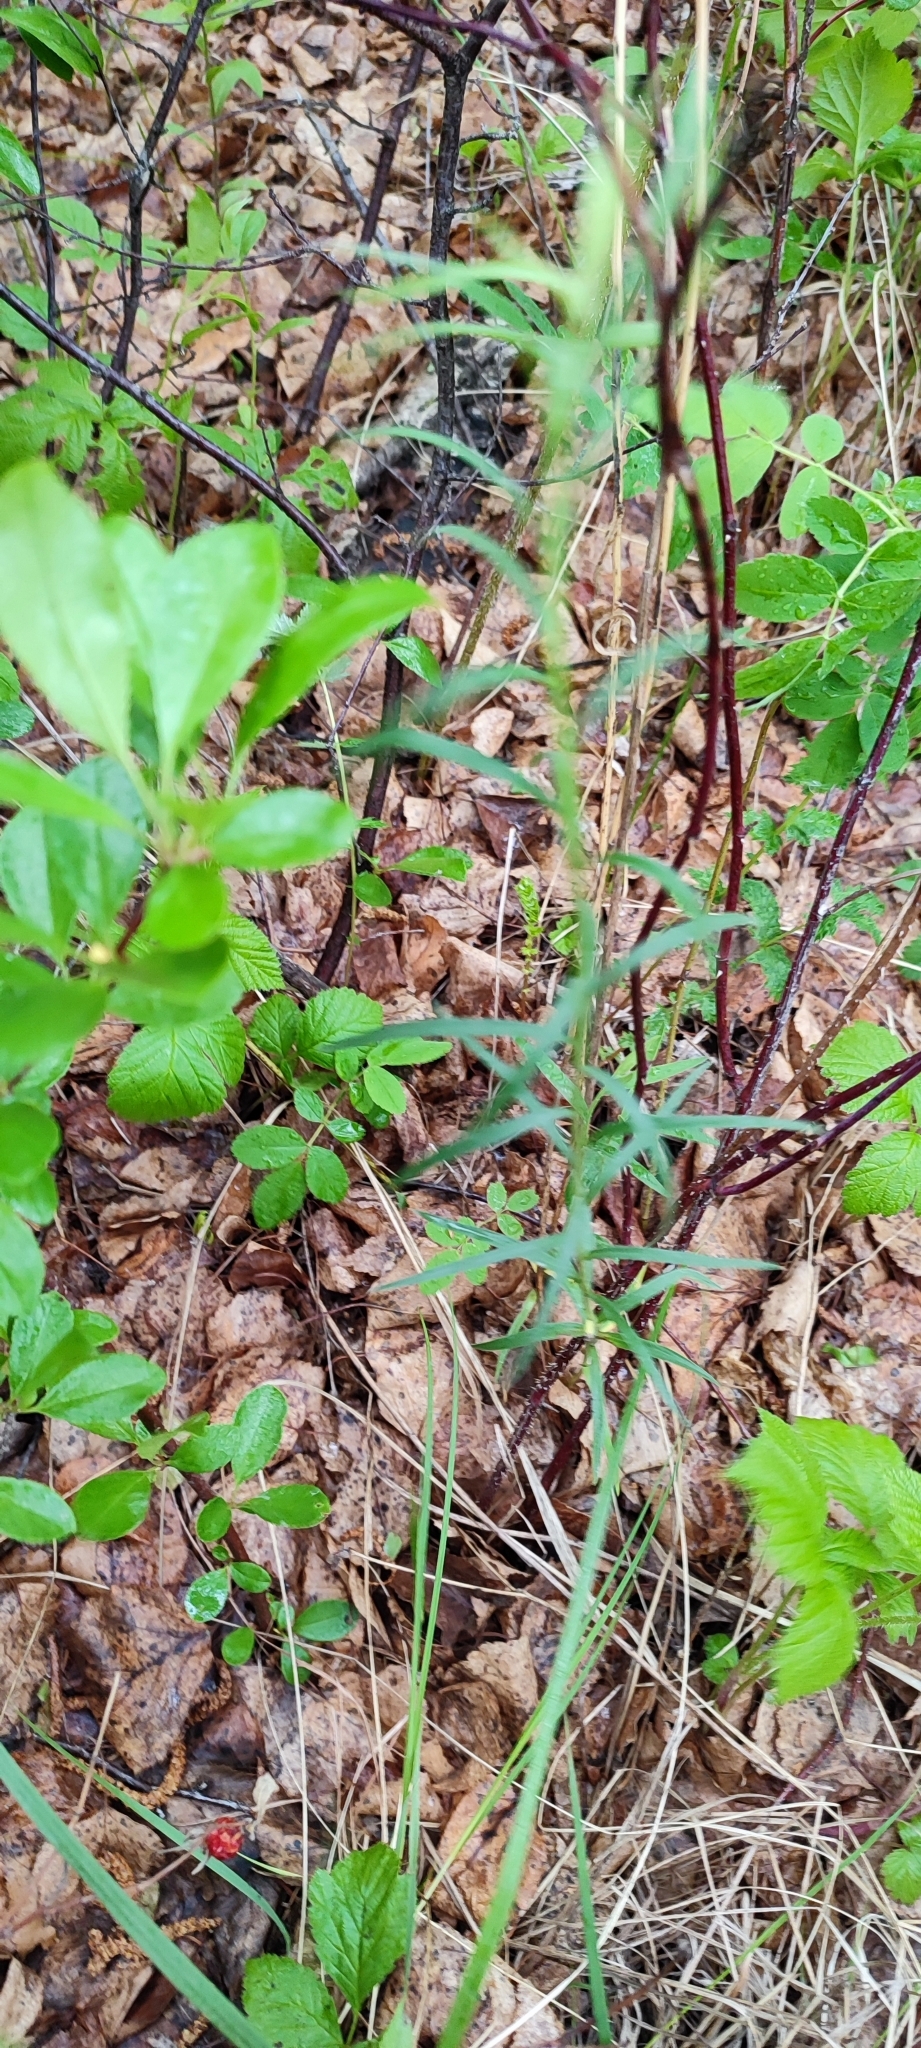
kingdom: Plantae
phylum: Tracheophyta
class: Magnoliopsida
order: Asterales
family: Asteraceae
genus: Hieracium
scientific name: Hieracium umbellatum
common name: Northern hawkweed
